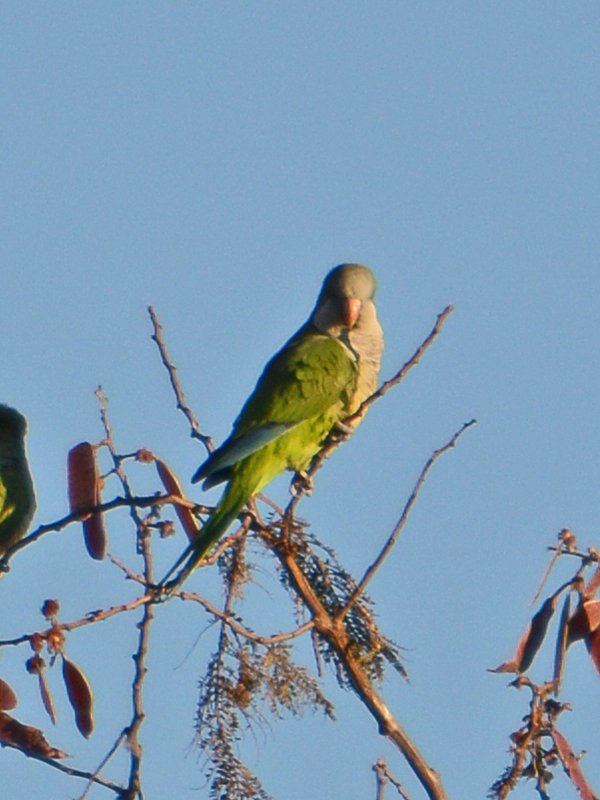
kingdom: Animalia
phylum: Chordata
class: Aves
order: Psittaciformes
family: Psittacidae
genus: Myiopsitta
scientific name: Myiopsitta monachus
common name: Monk parakeet
